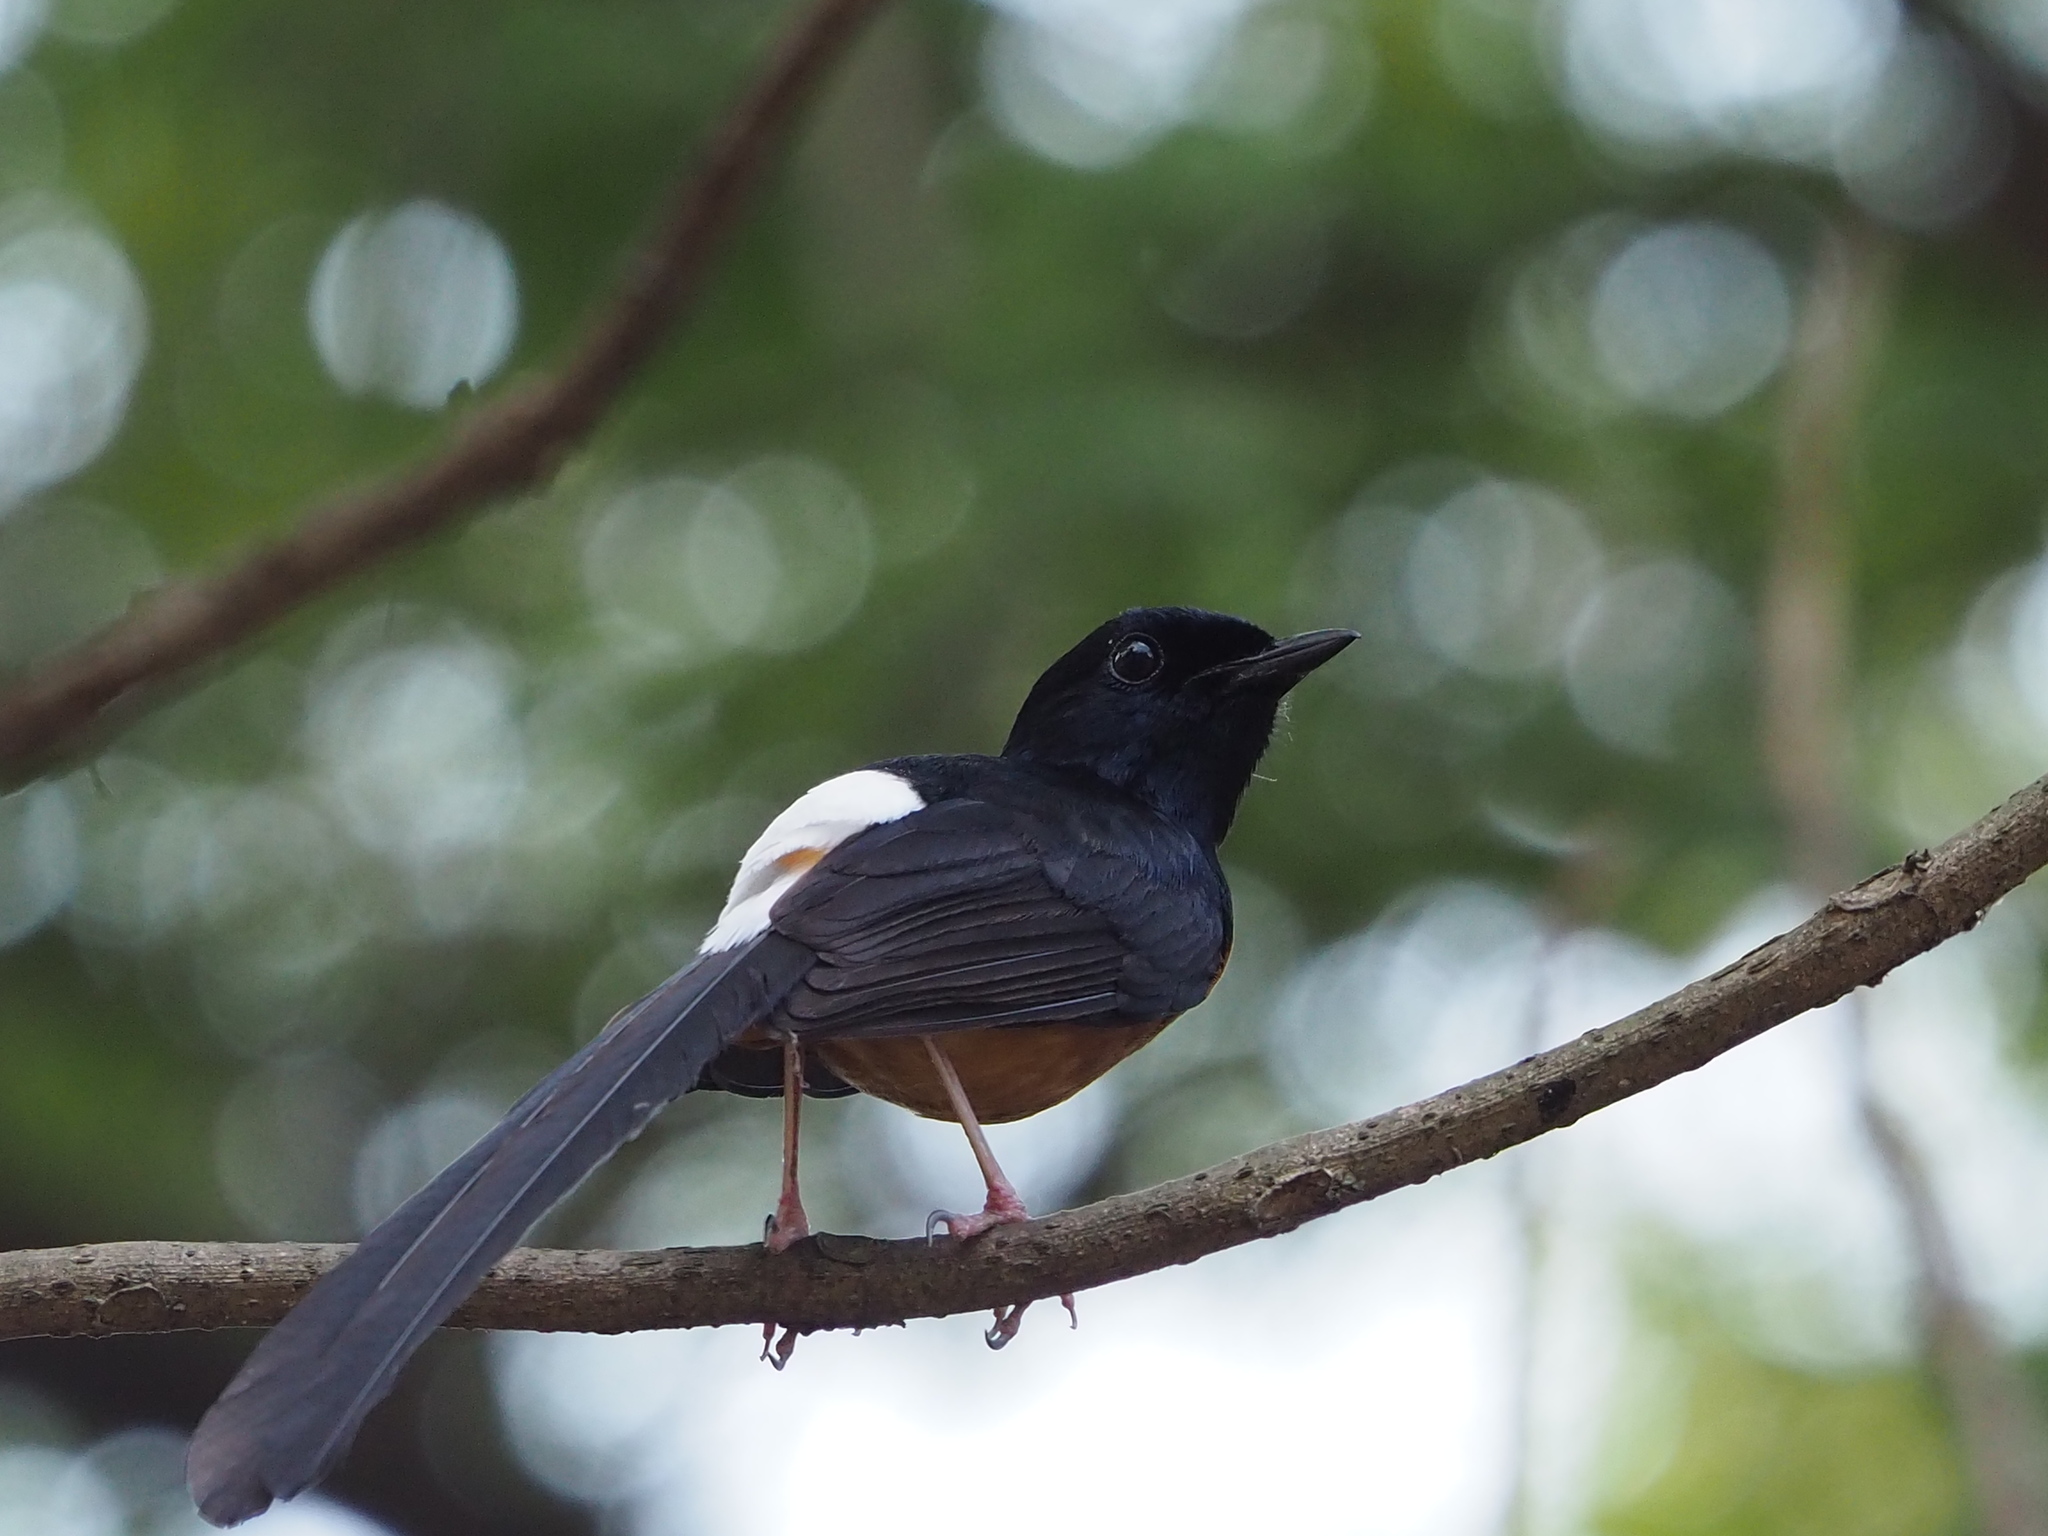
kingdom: Animalia
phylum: Chordata
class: Aves
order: Passeriformes
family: Muscicapidae
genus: Copsychus
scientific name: Copsychus malabaricus
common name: White-rumped shama
